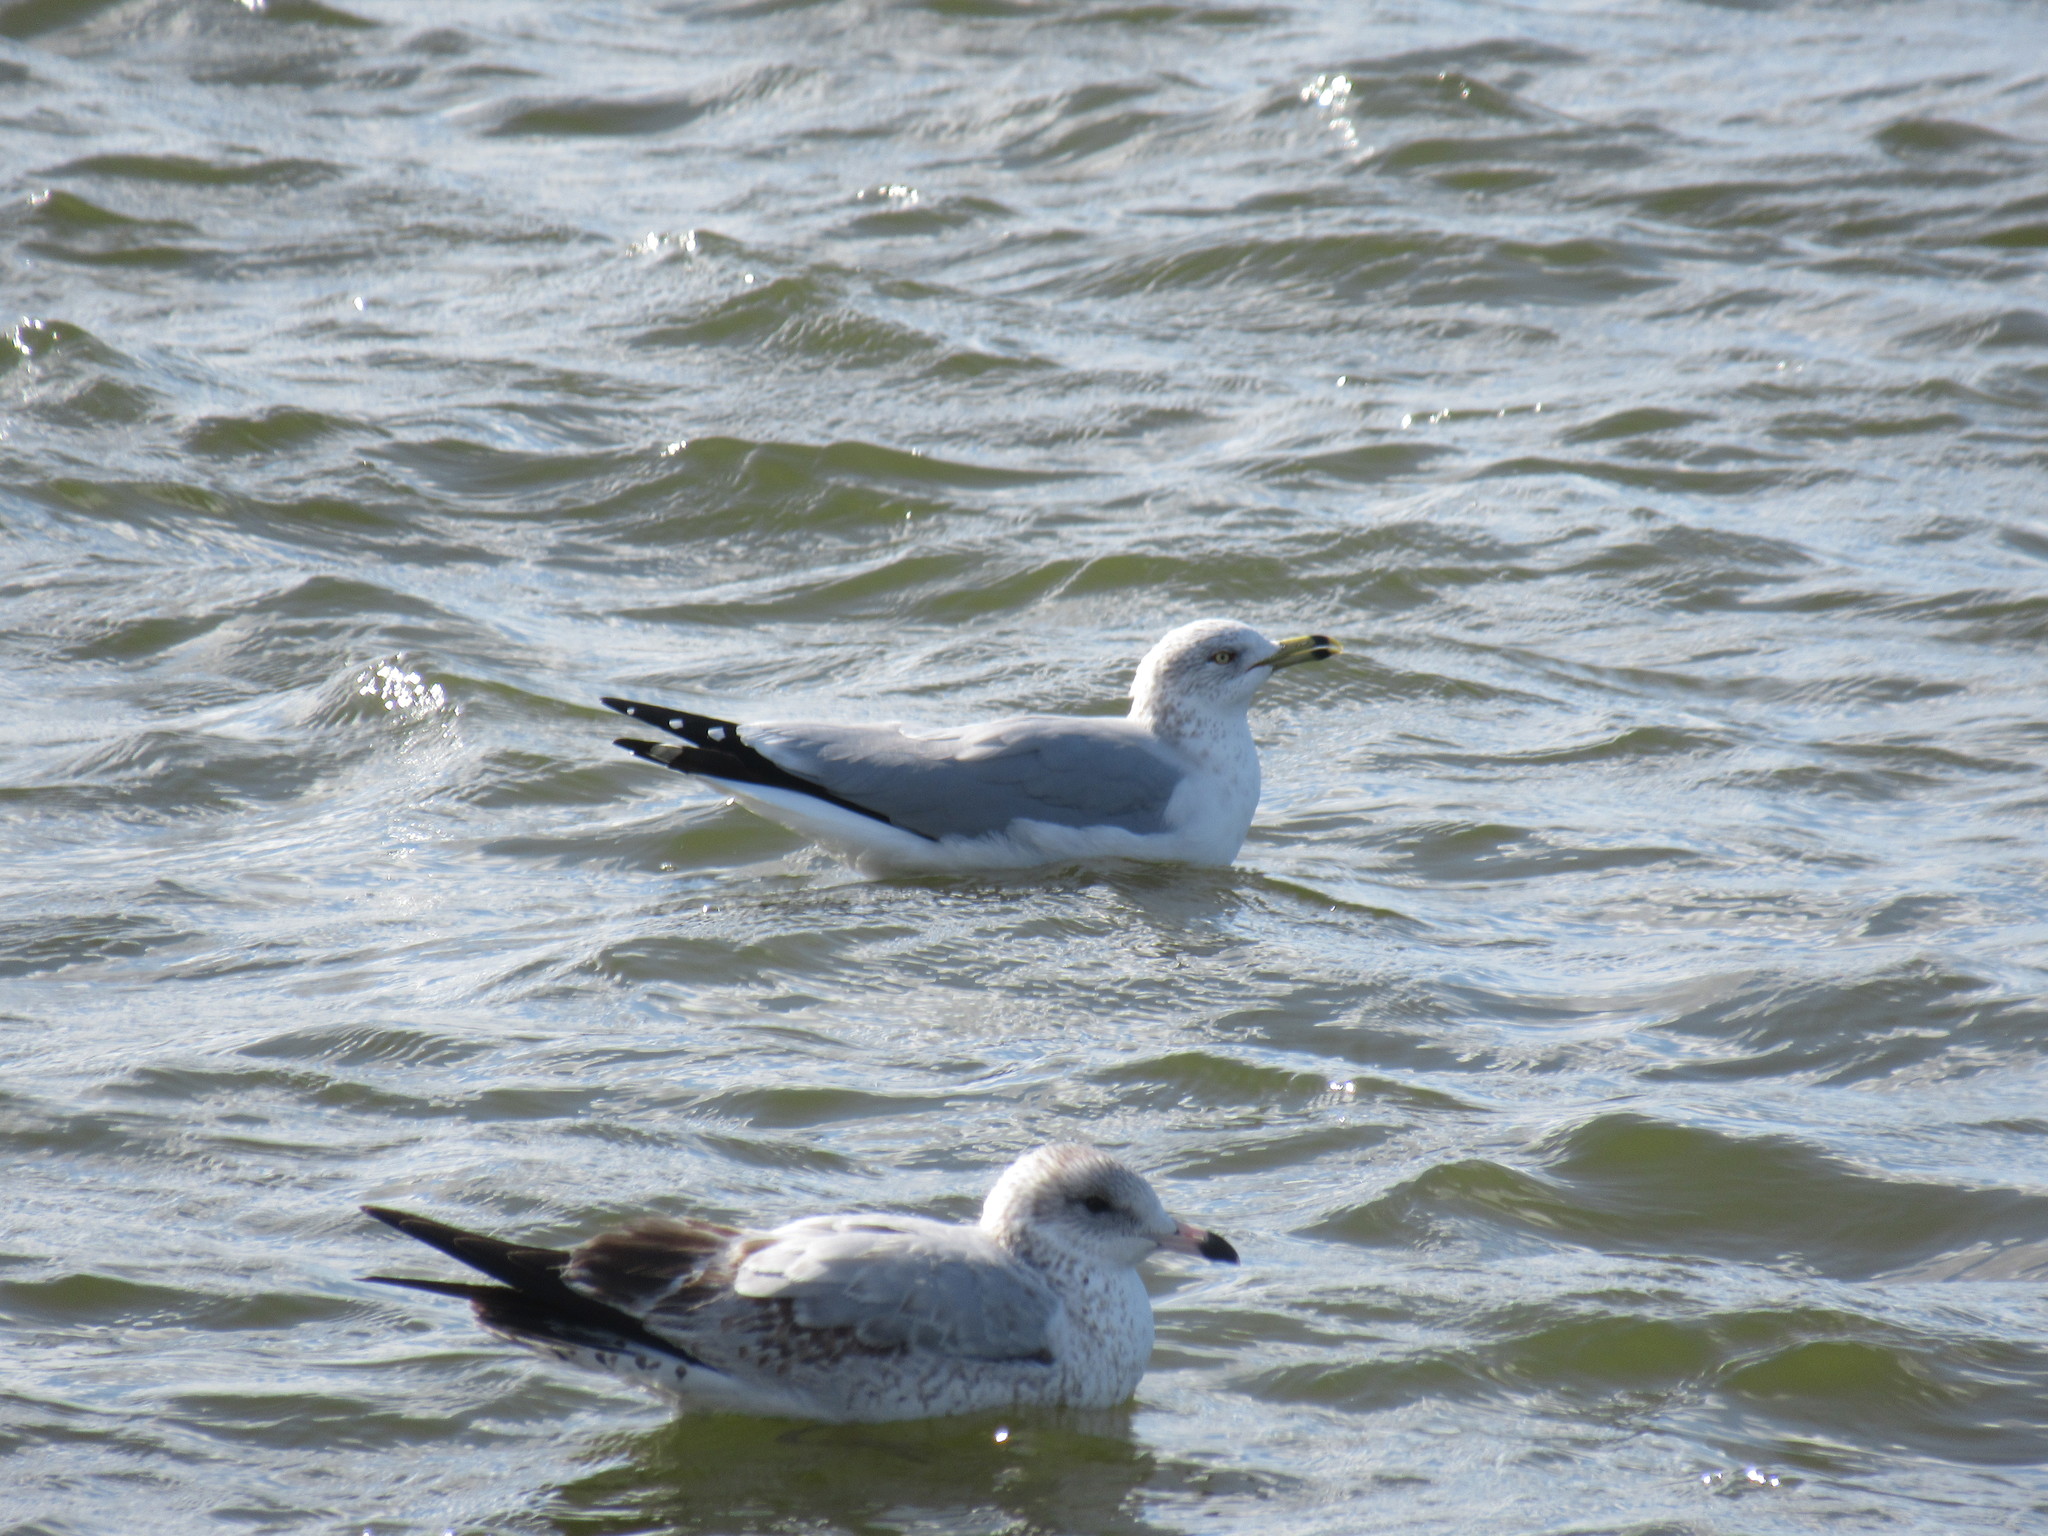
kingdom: Animalia
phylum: Chordata
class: Aves
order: Charadriiformes
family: Laridae
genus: Larus
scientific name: Larus delawarensis
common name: Ring-billed gull
